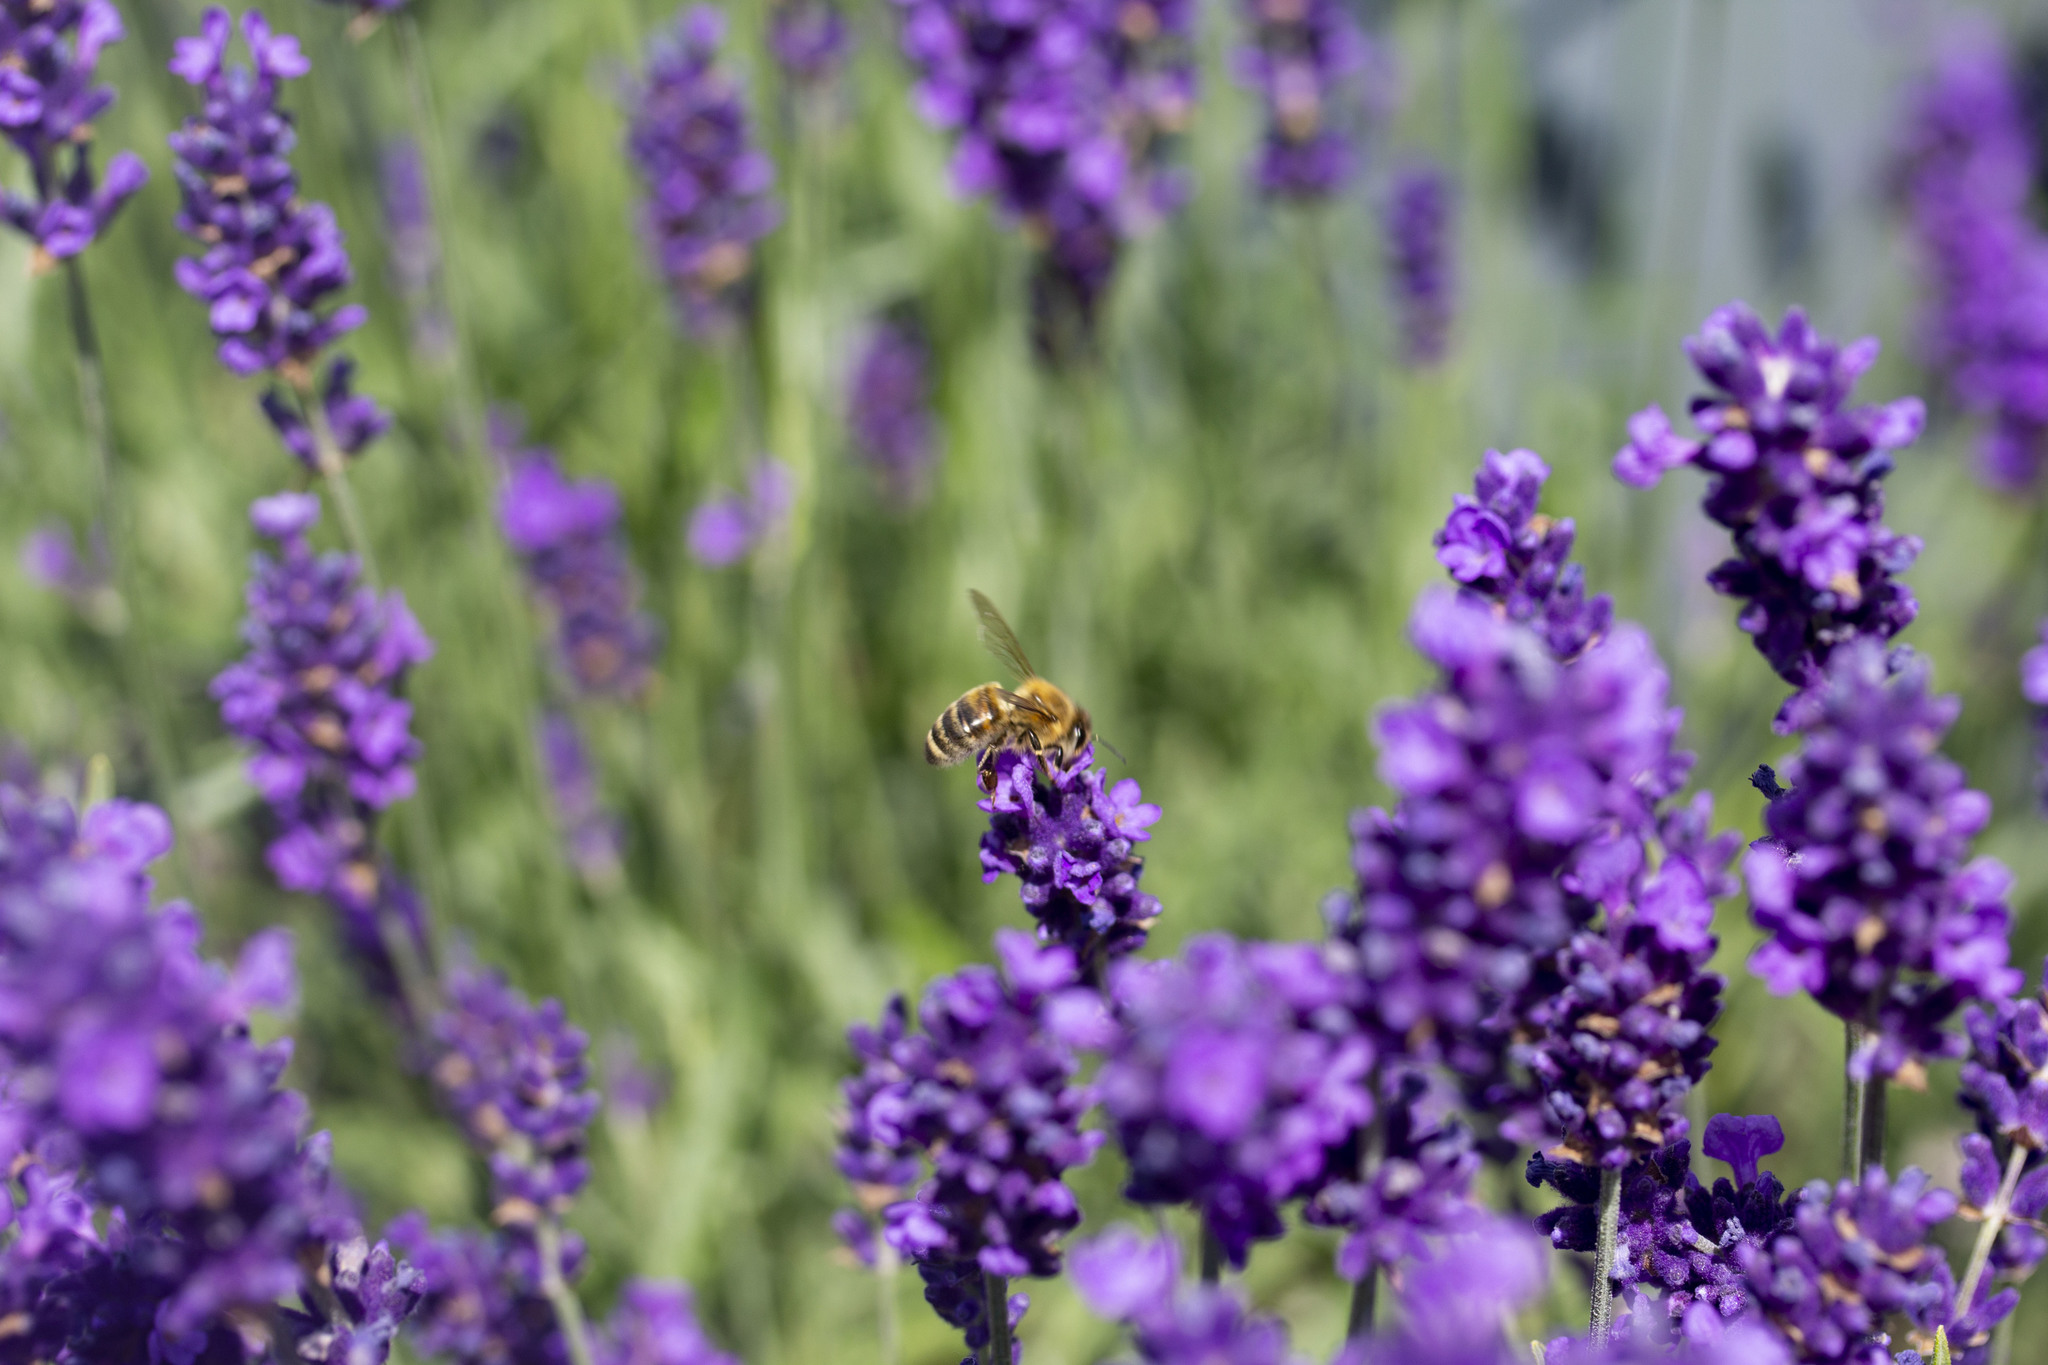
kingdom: Animalia
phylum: Arthropoda
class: Insecta
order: Hymenoptera
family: Apidae
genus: Apis
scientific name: Apis mellifera
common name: Honey bee
